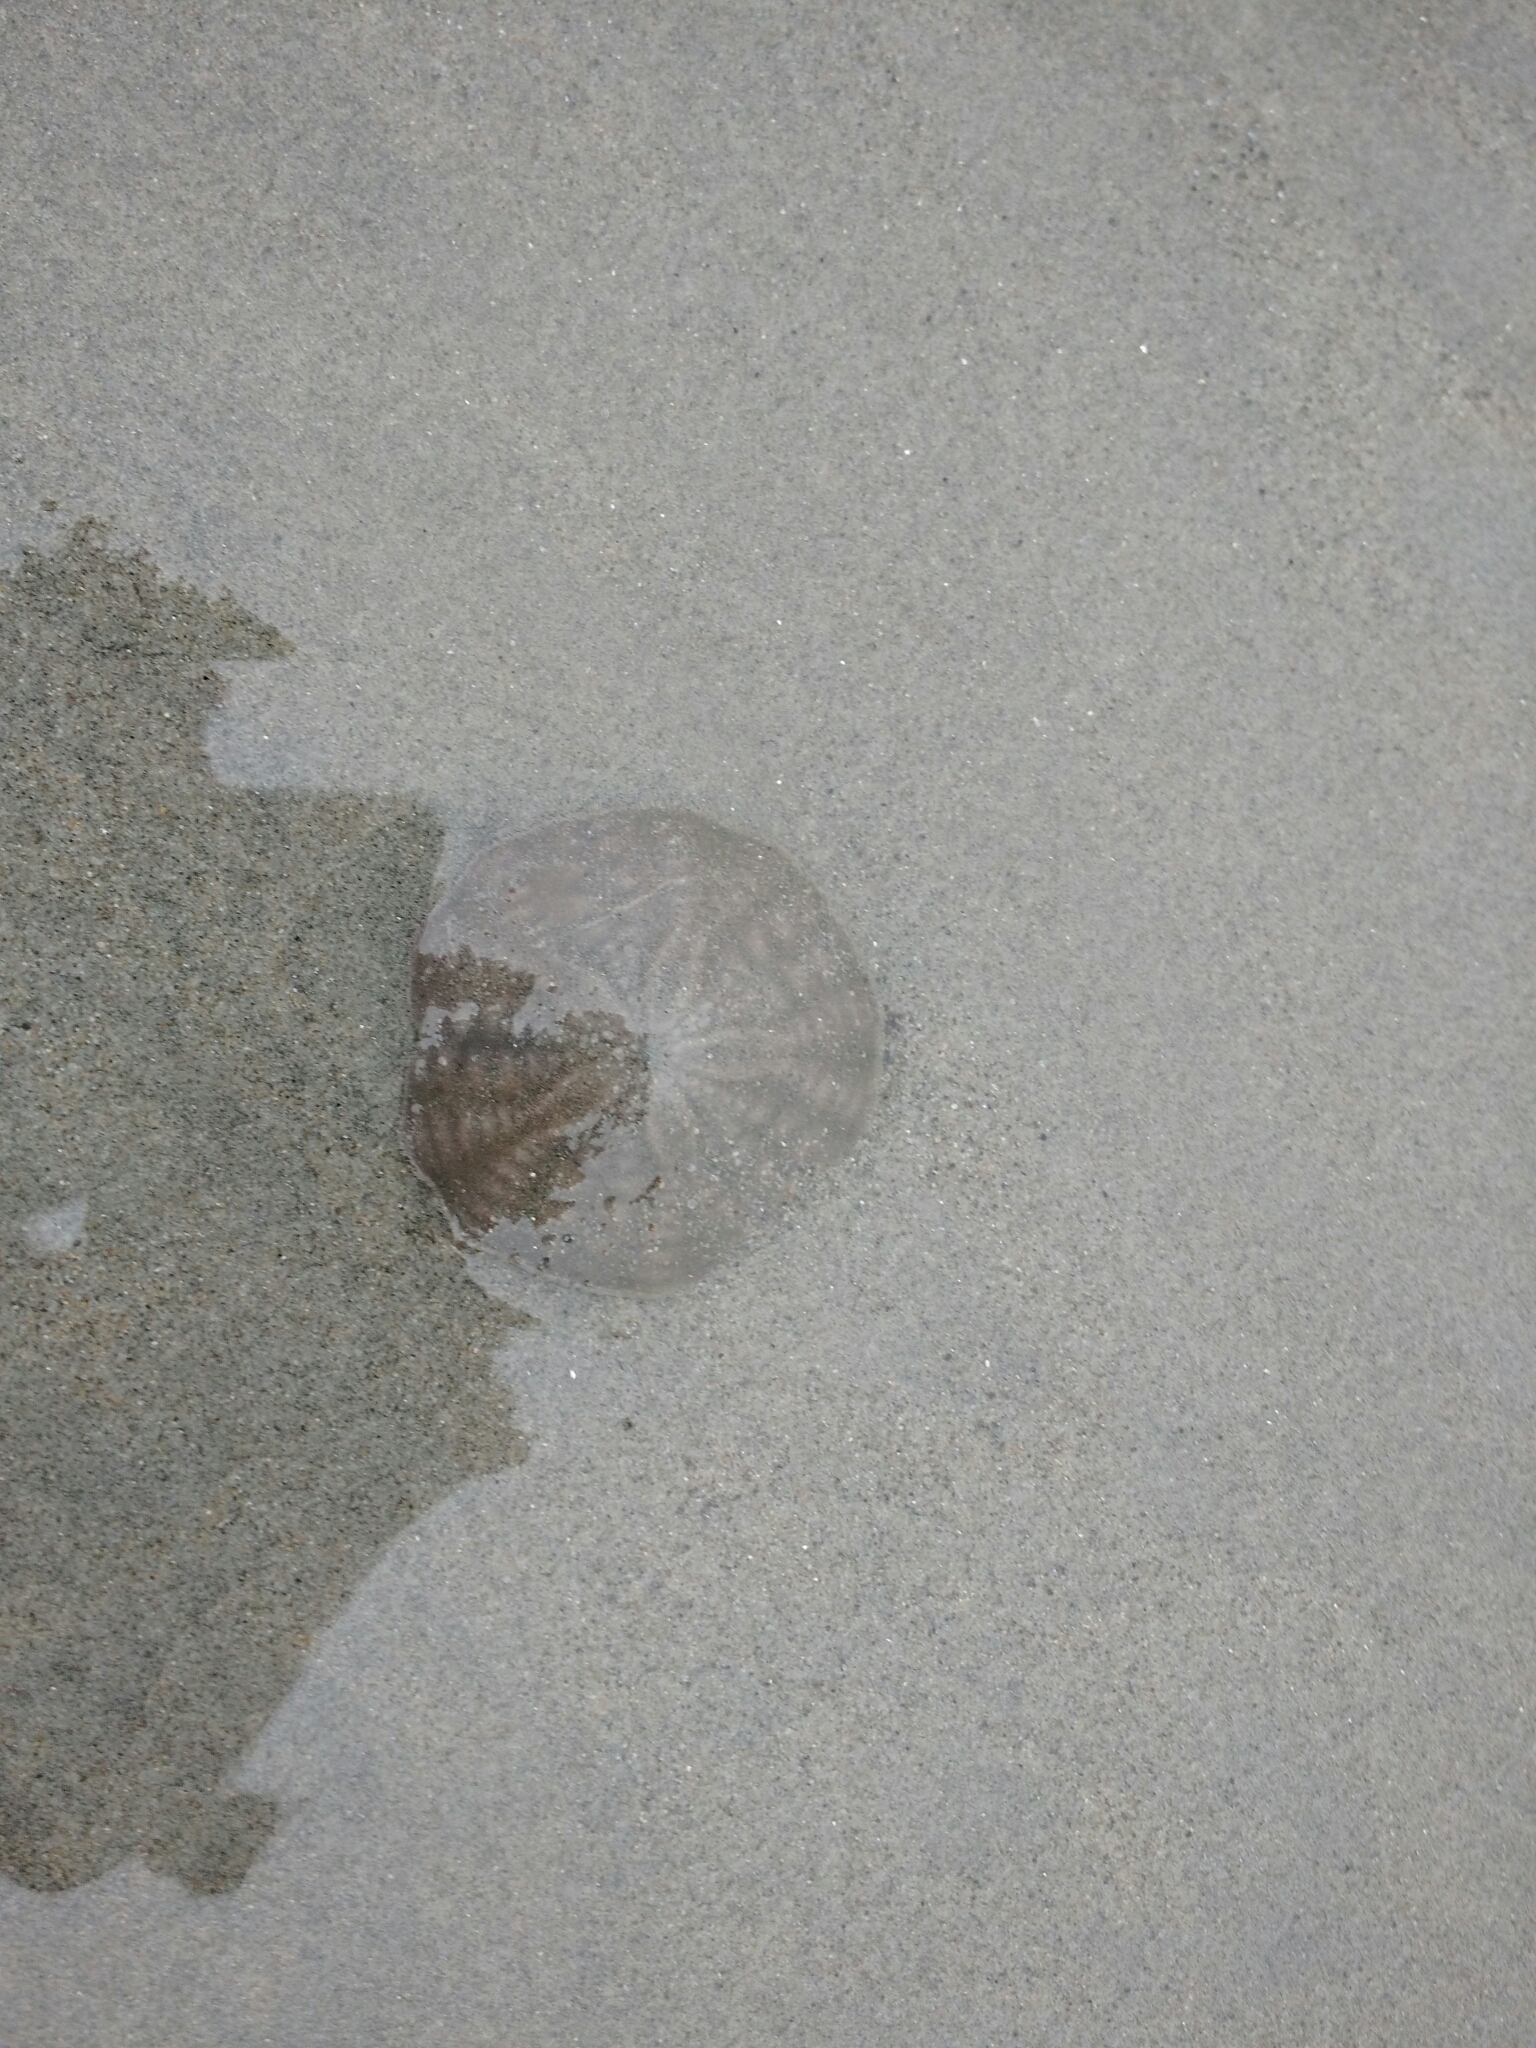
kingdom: Animalia
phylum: Echinodermata
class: Echinoidea
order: Echinolampadacea
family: Echinarachniidae
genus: Echinarachnius
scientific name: Echinarachnius parma
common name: Common sand dollar
